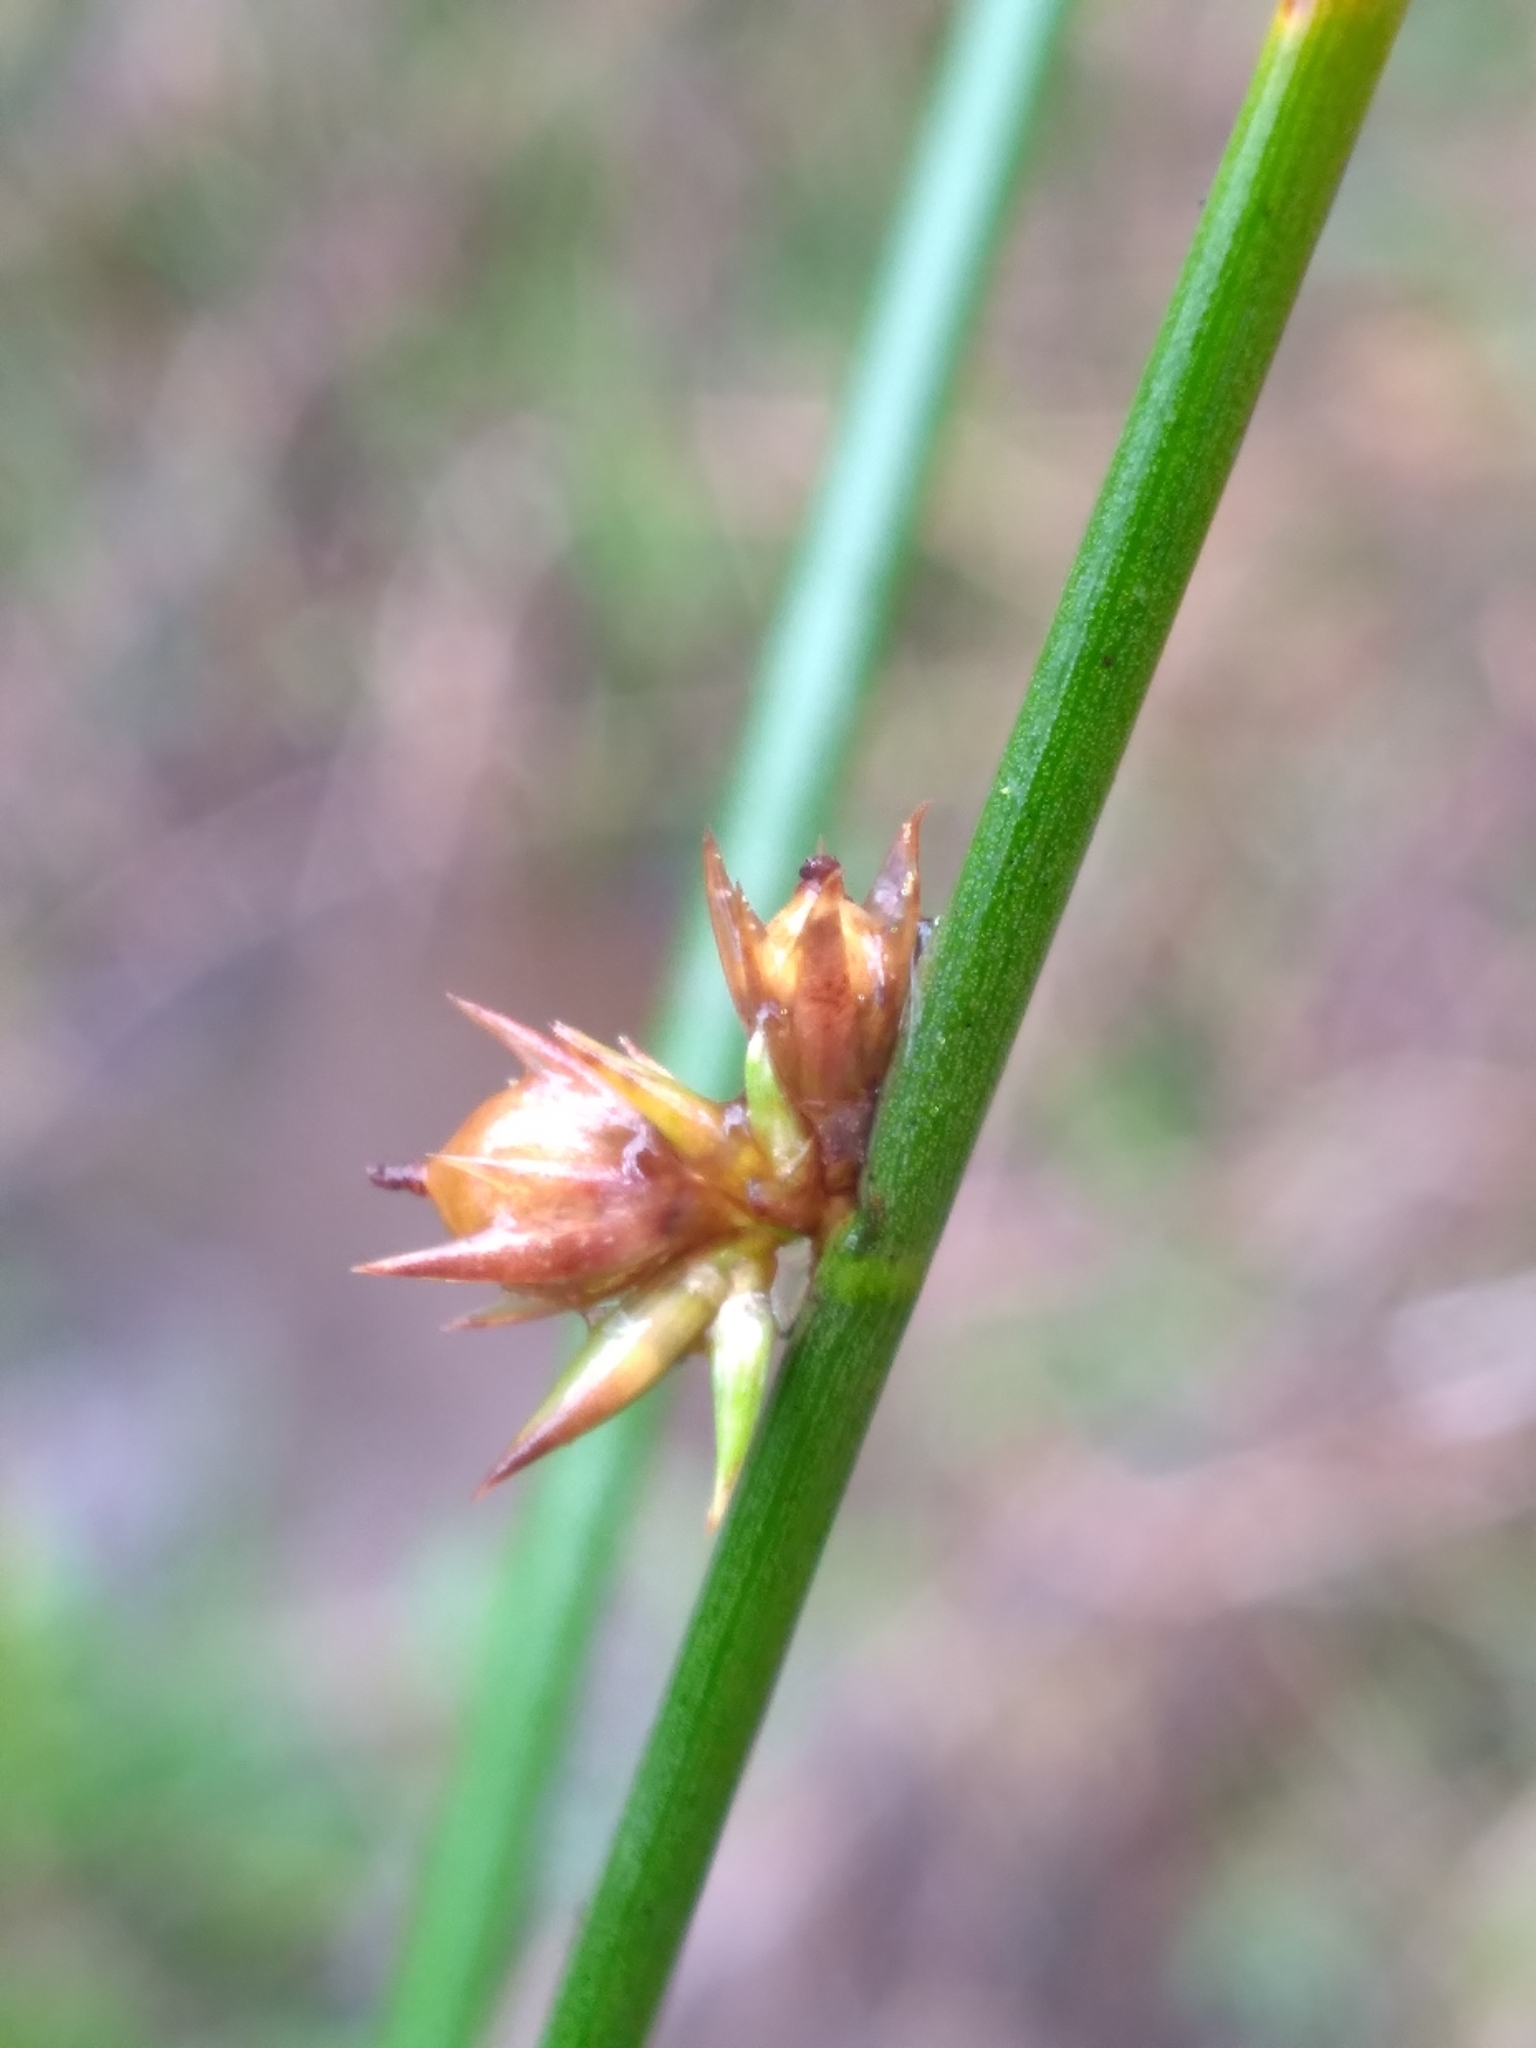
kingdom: Plantae
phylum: Tracheophyta
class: Liliopsida
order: Poales
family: Juncaceae
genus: Juncus
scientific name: Juncus coriaceus
